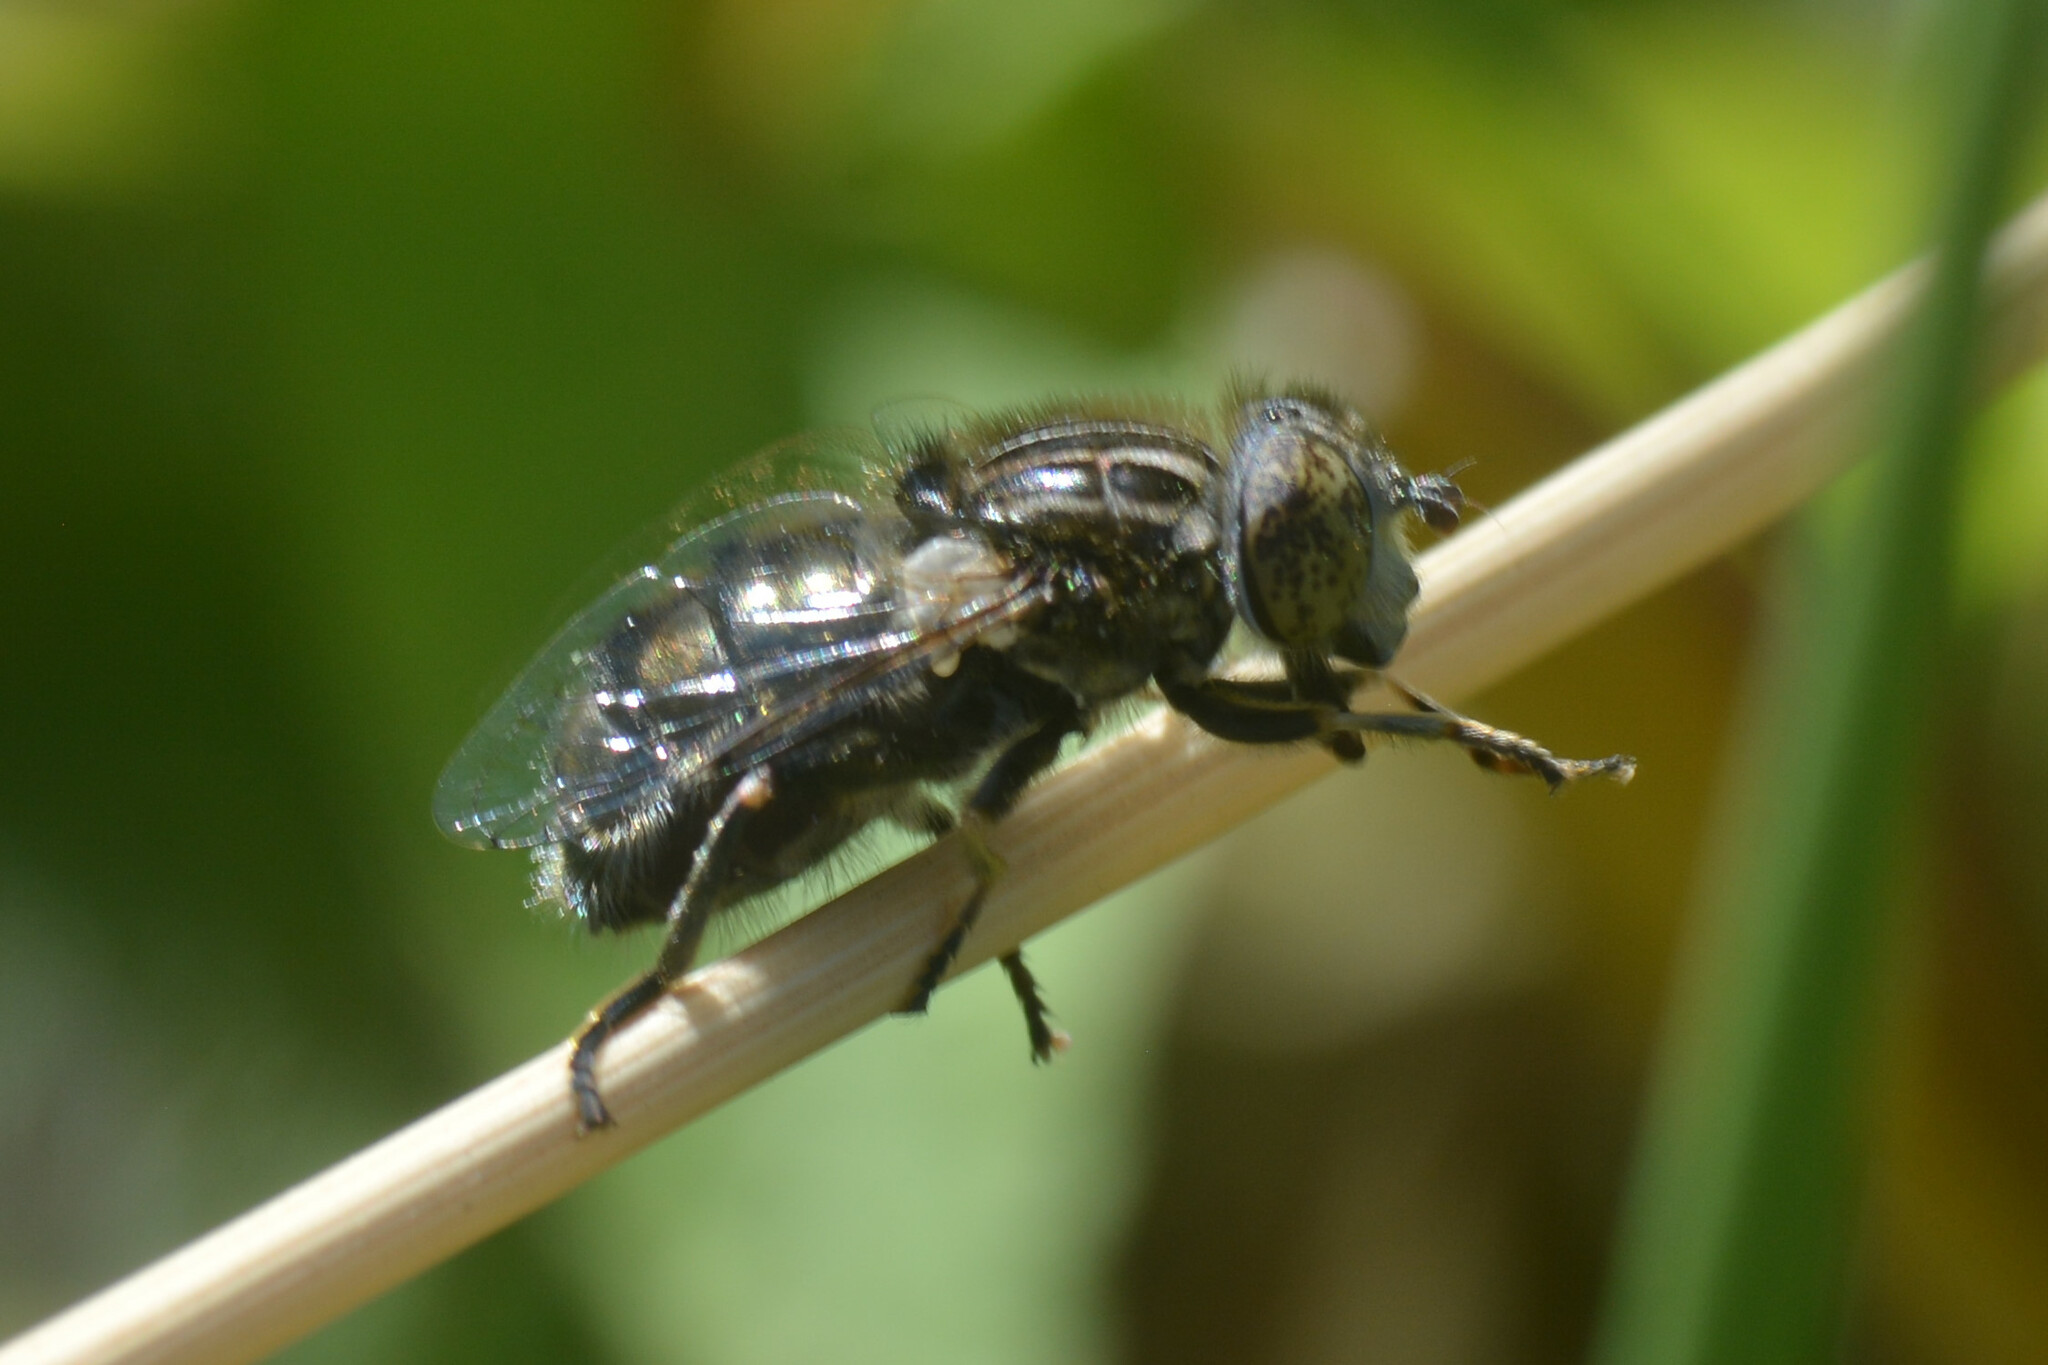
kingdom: Animalia
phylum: Arthropoda
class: Insecta
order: Diptera
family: Syrphidae
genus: Eristalinus
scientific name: Eristalinus sepulchralis
